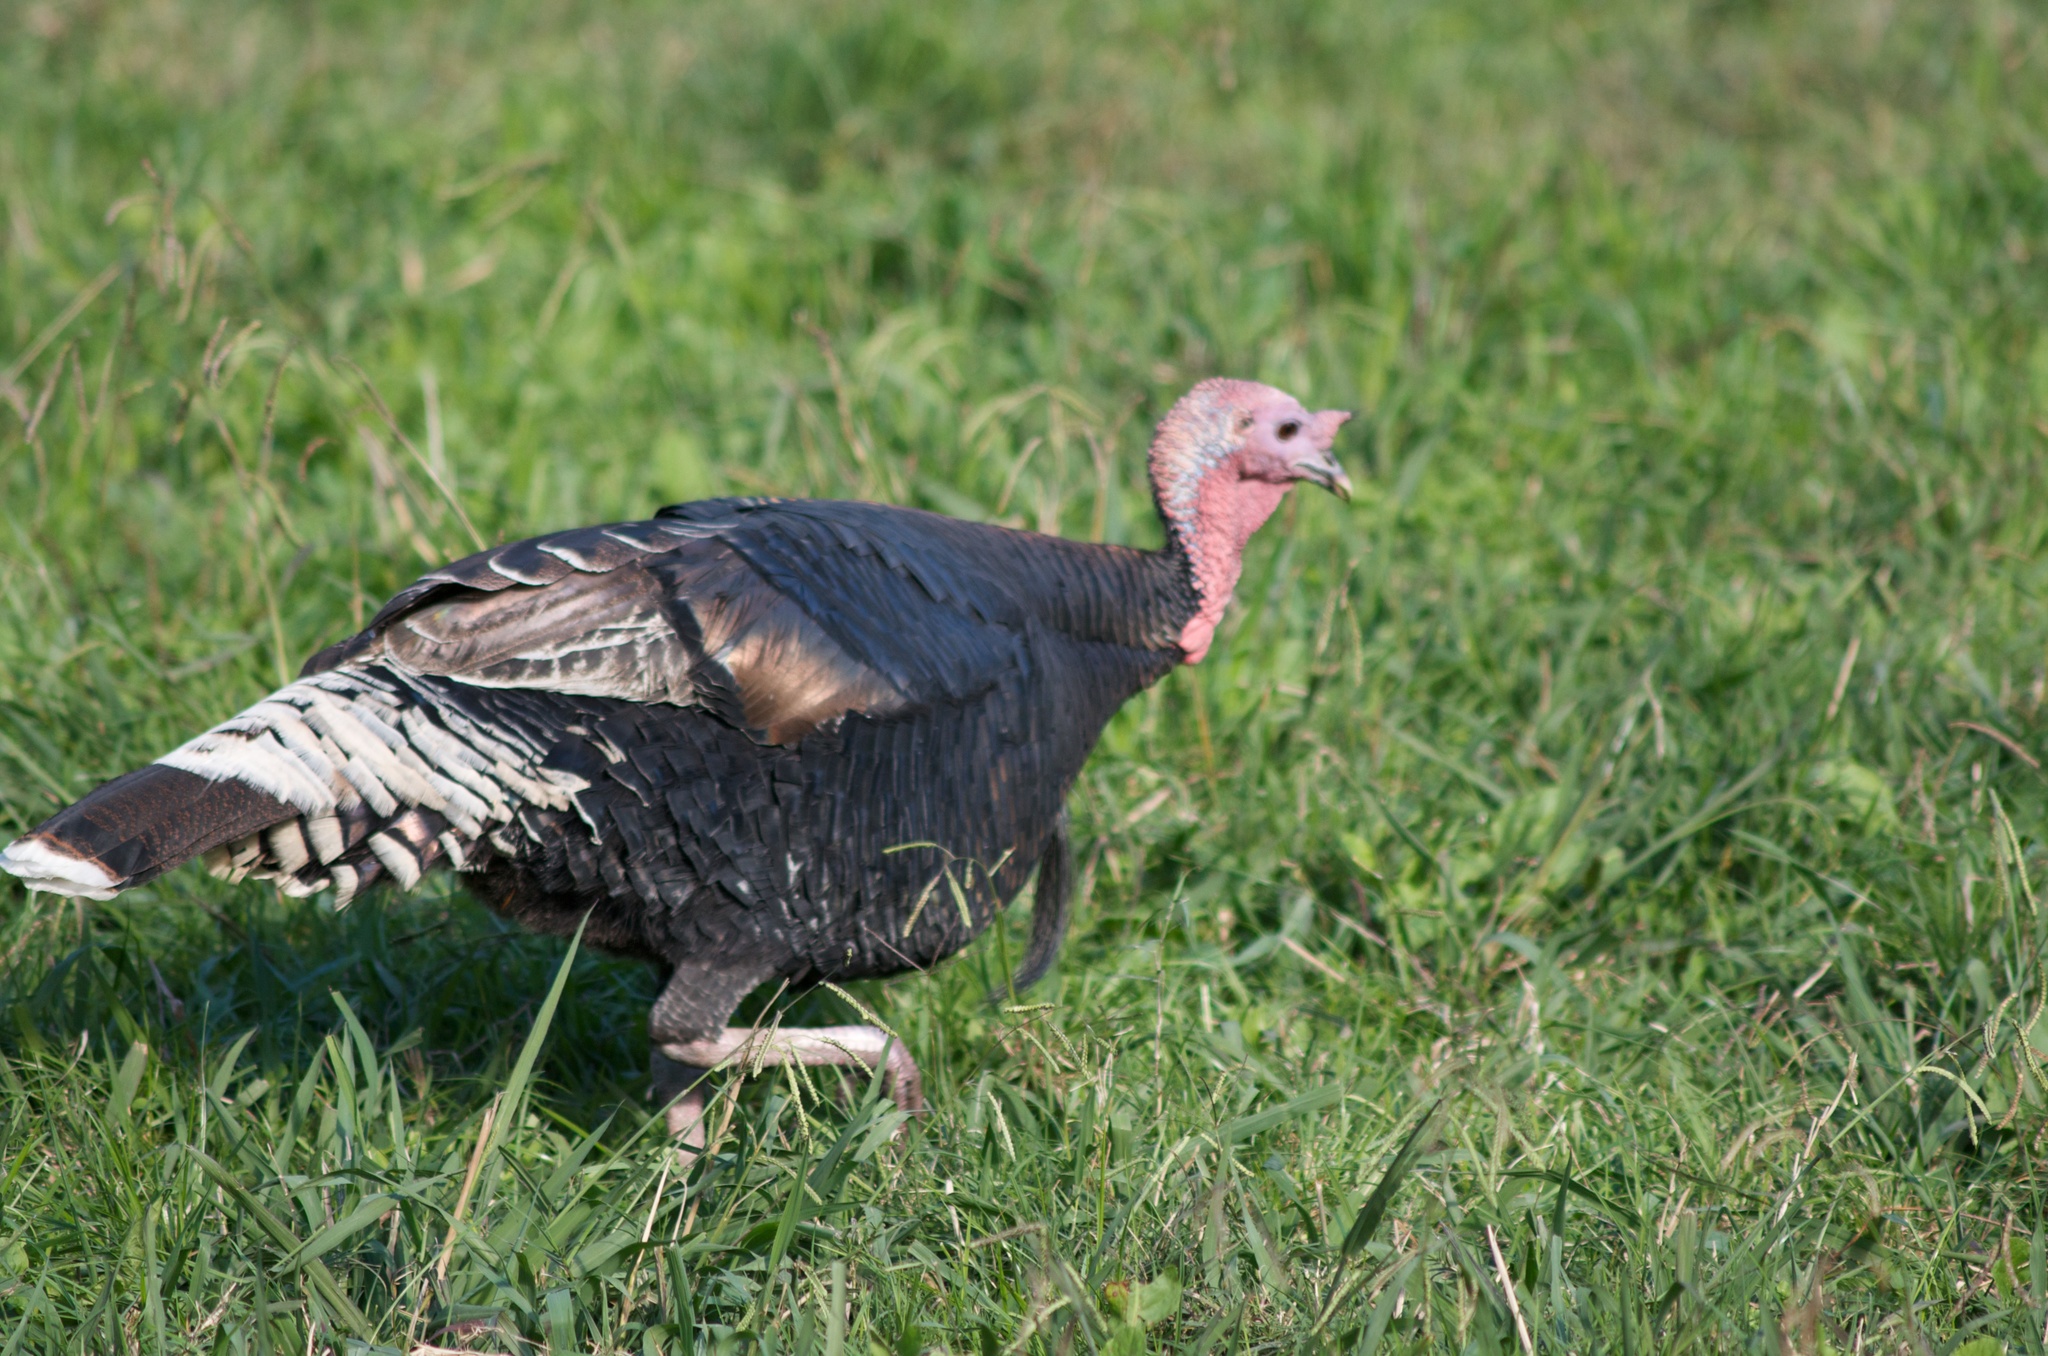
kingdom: Animalia
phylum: Chordata
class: Aves
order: Galliformes
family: Phasianidae
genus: Meleagris
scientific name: Meleagris gallopavo
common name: Wild turkey
